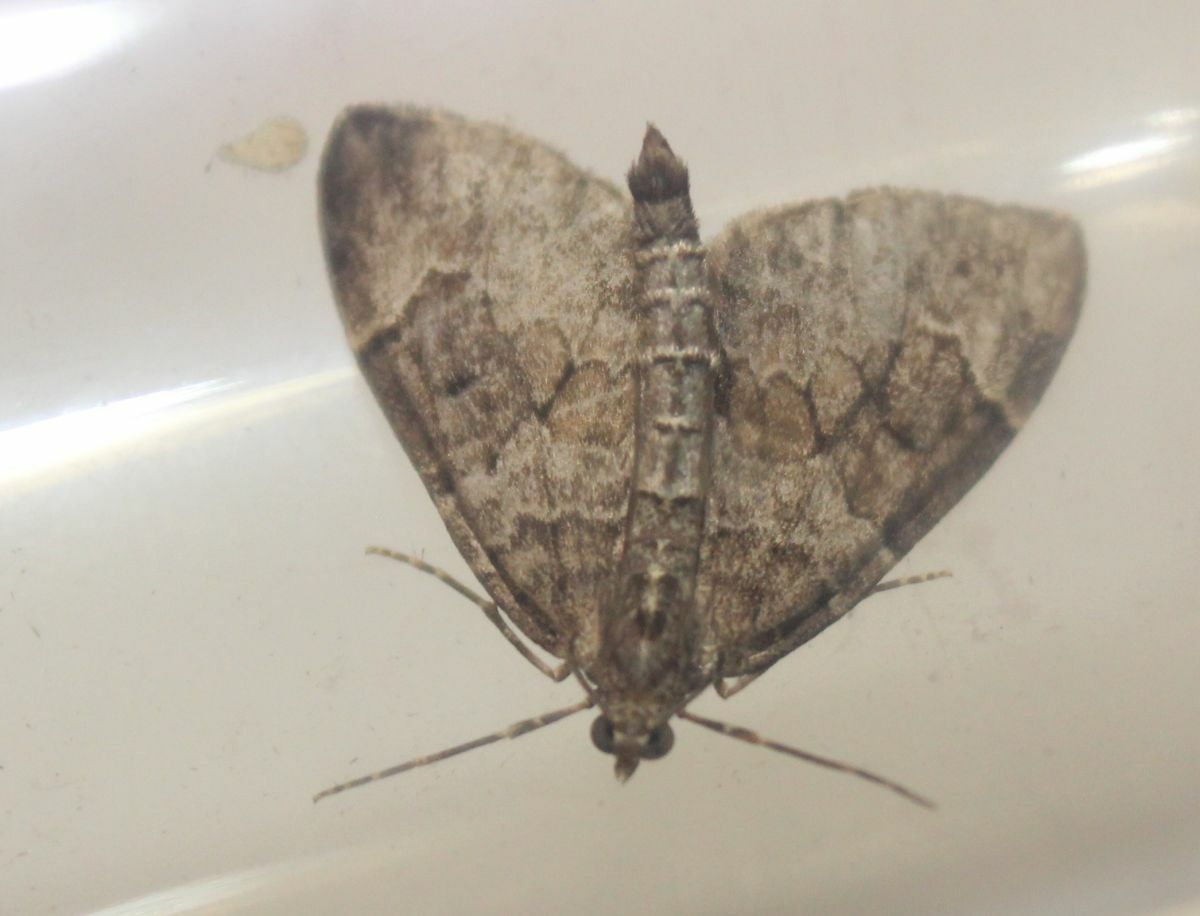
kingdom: Animalia
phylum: Arthropoda
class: Insecta
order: Lepidoptera
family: Geometridae
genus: Thera
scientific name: Thera britannica
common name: Spruce carpet
